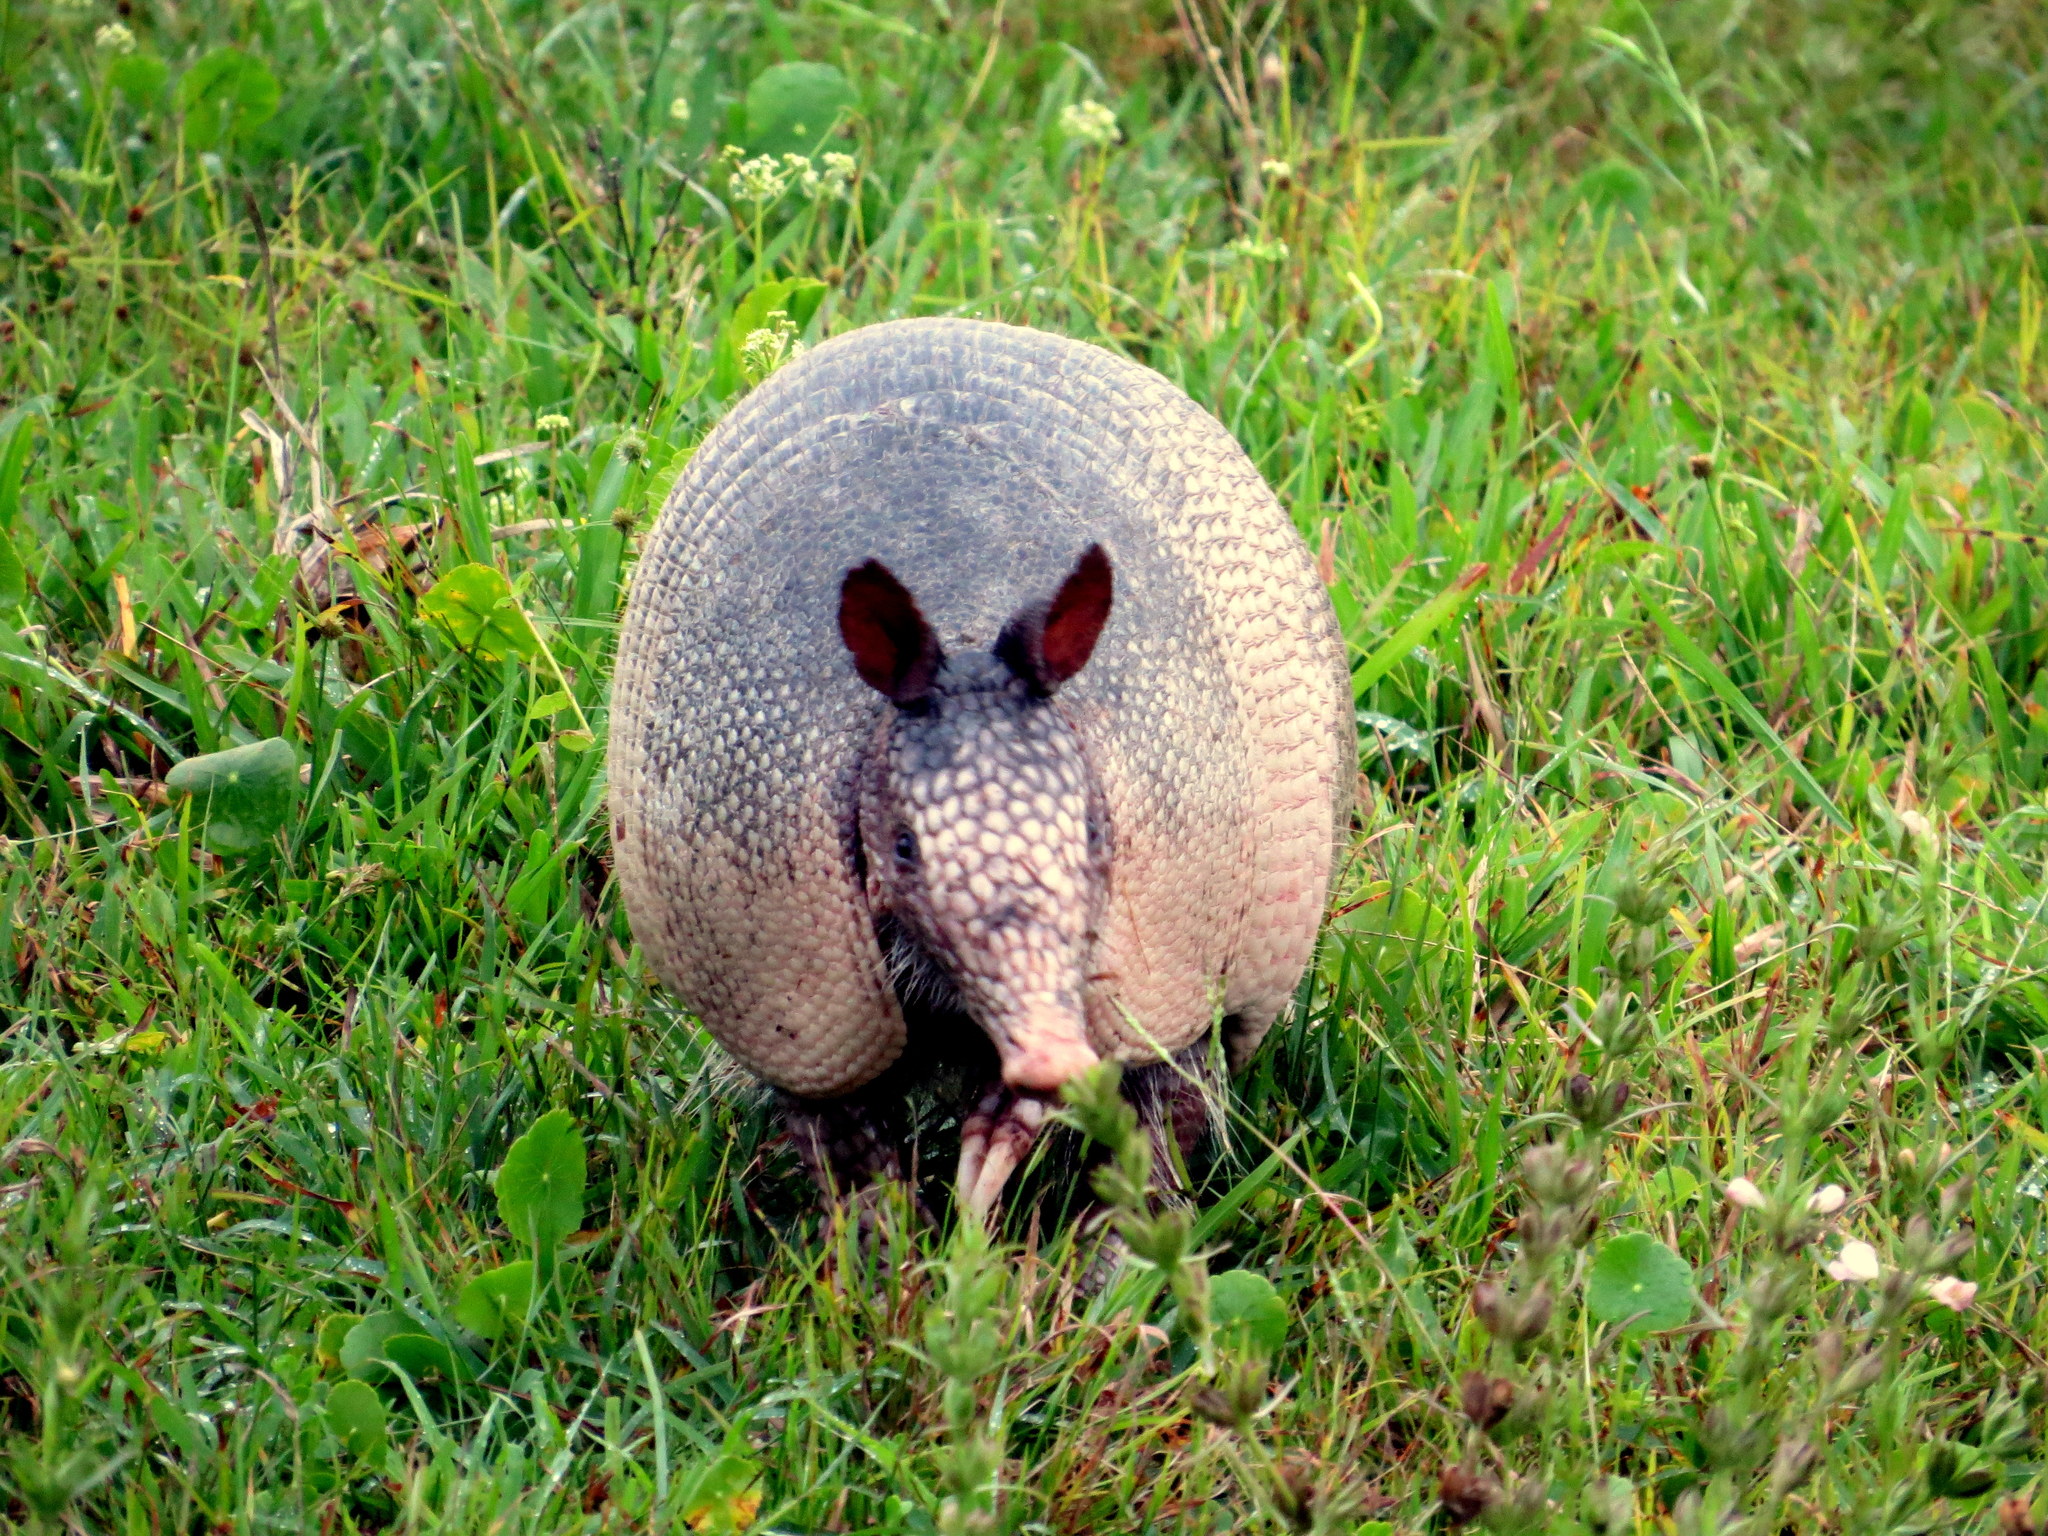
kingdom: Animalia
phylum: Chordata
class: Mammalia
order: Cingulata
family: Dasypodidae
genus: Dasypus
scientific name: Dasypus novemcinctus
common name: Nine-banded armadillo
